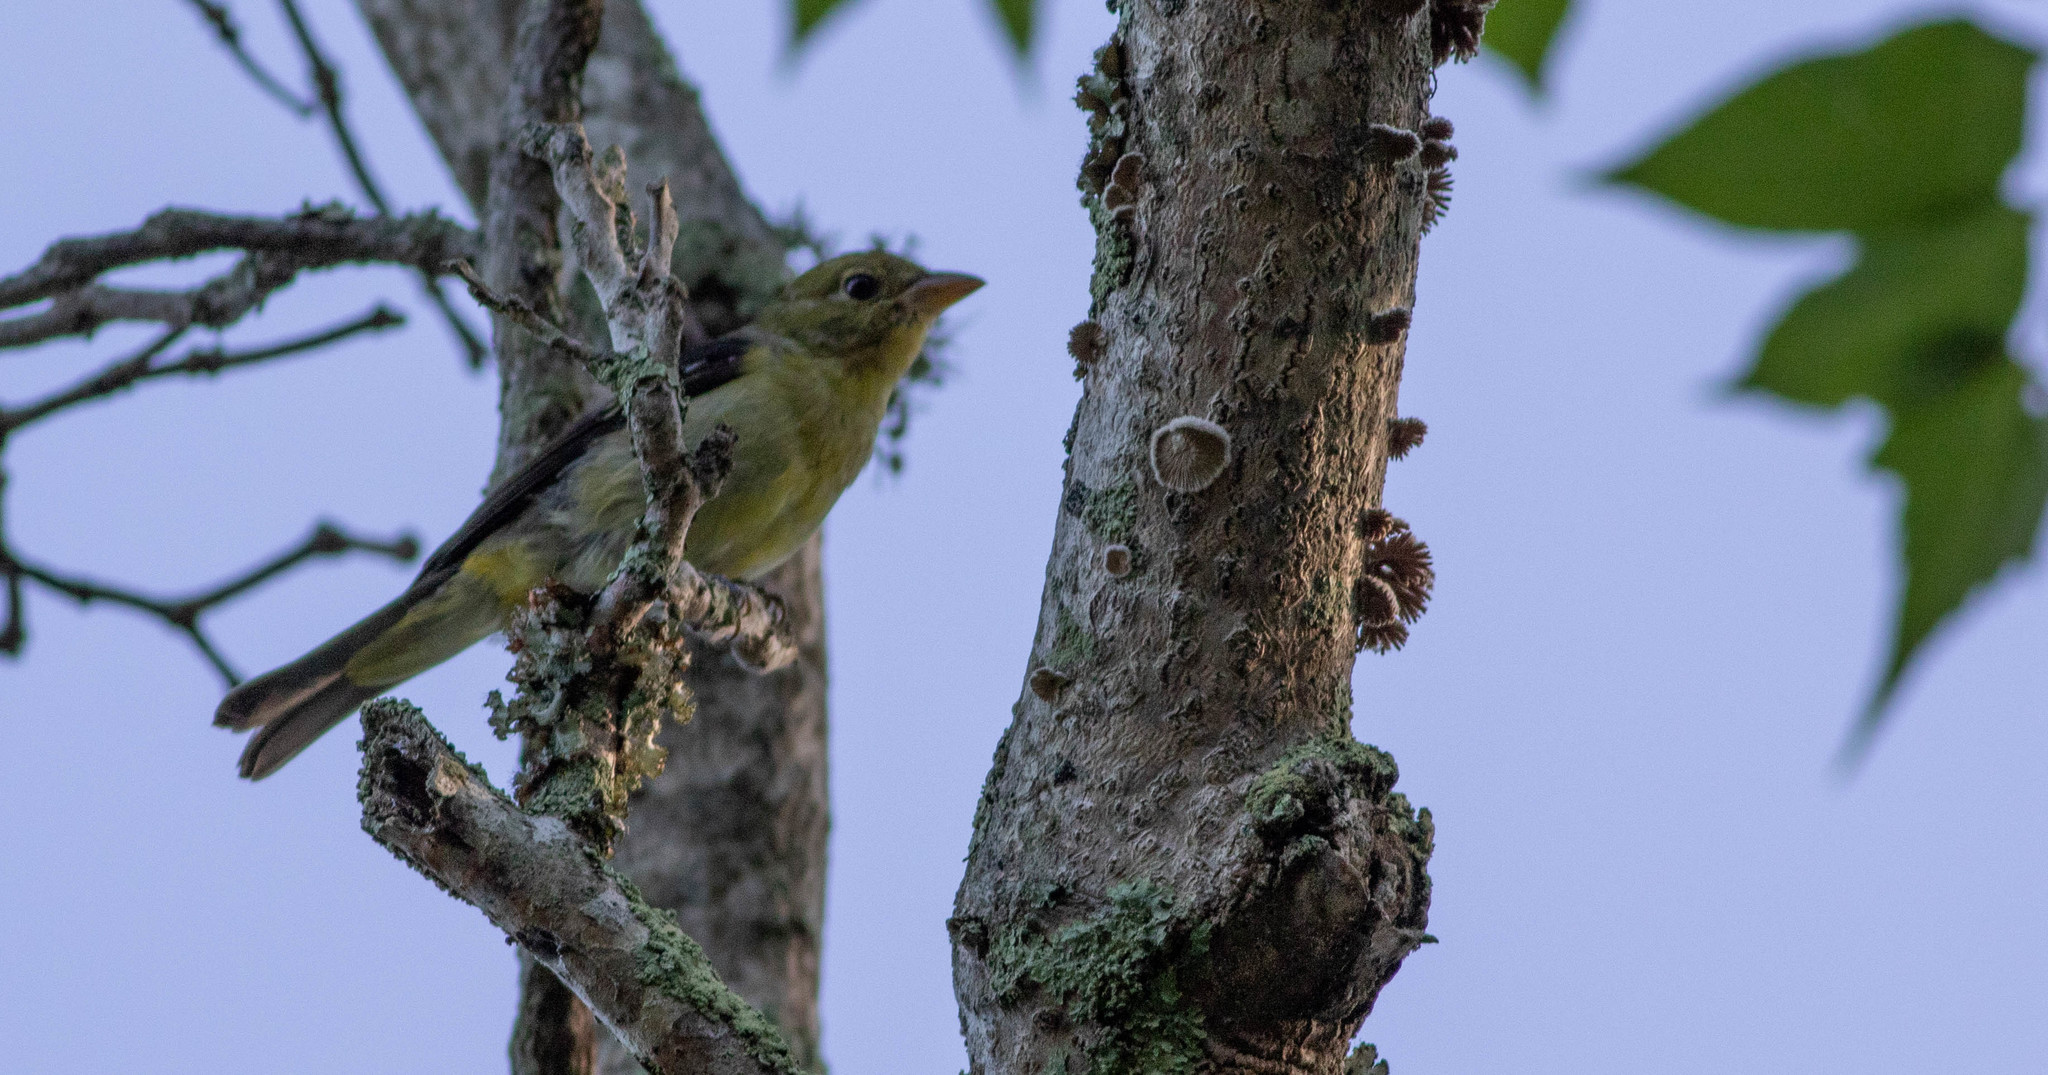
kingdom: Animalia
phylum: Chordata
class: Aves
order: Passeriformes
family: Cardinalidae
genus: Piranga
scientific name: Piranga olivacea
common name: Scarlet tanager
